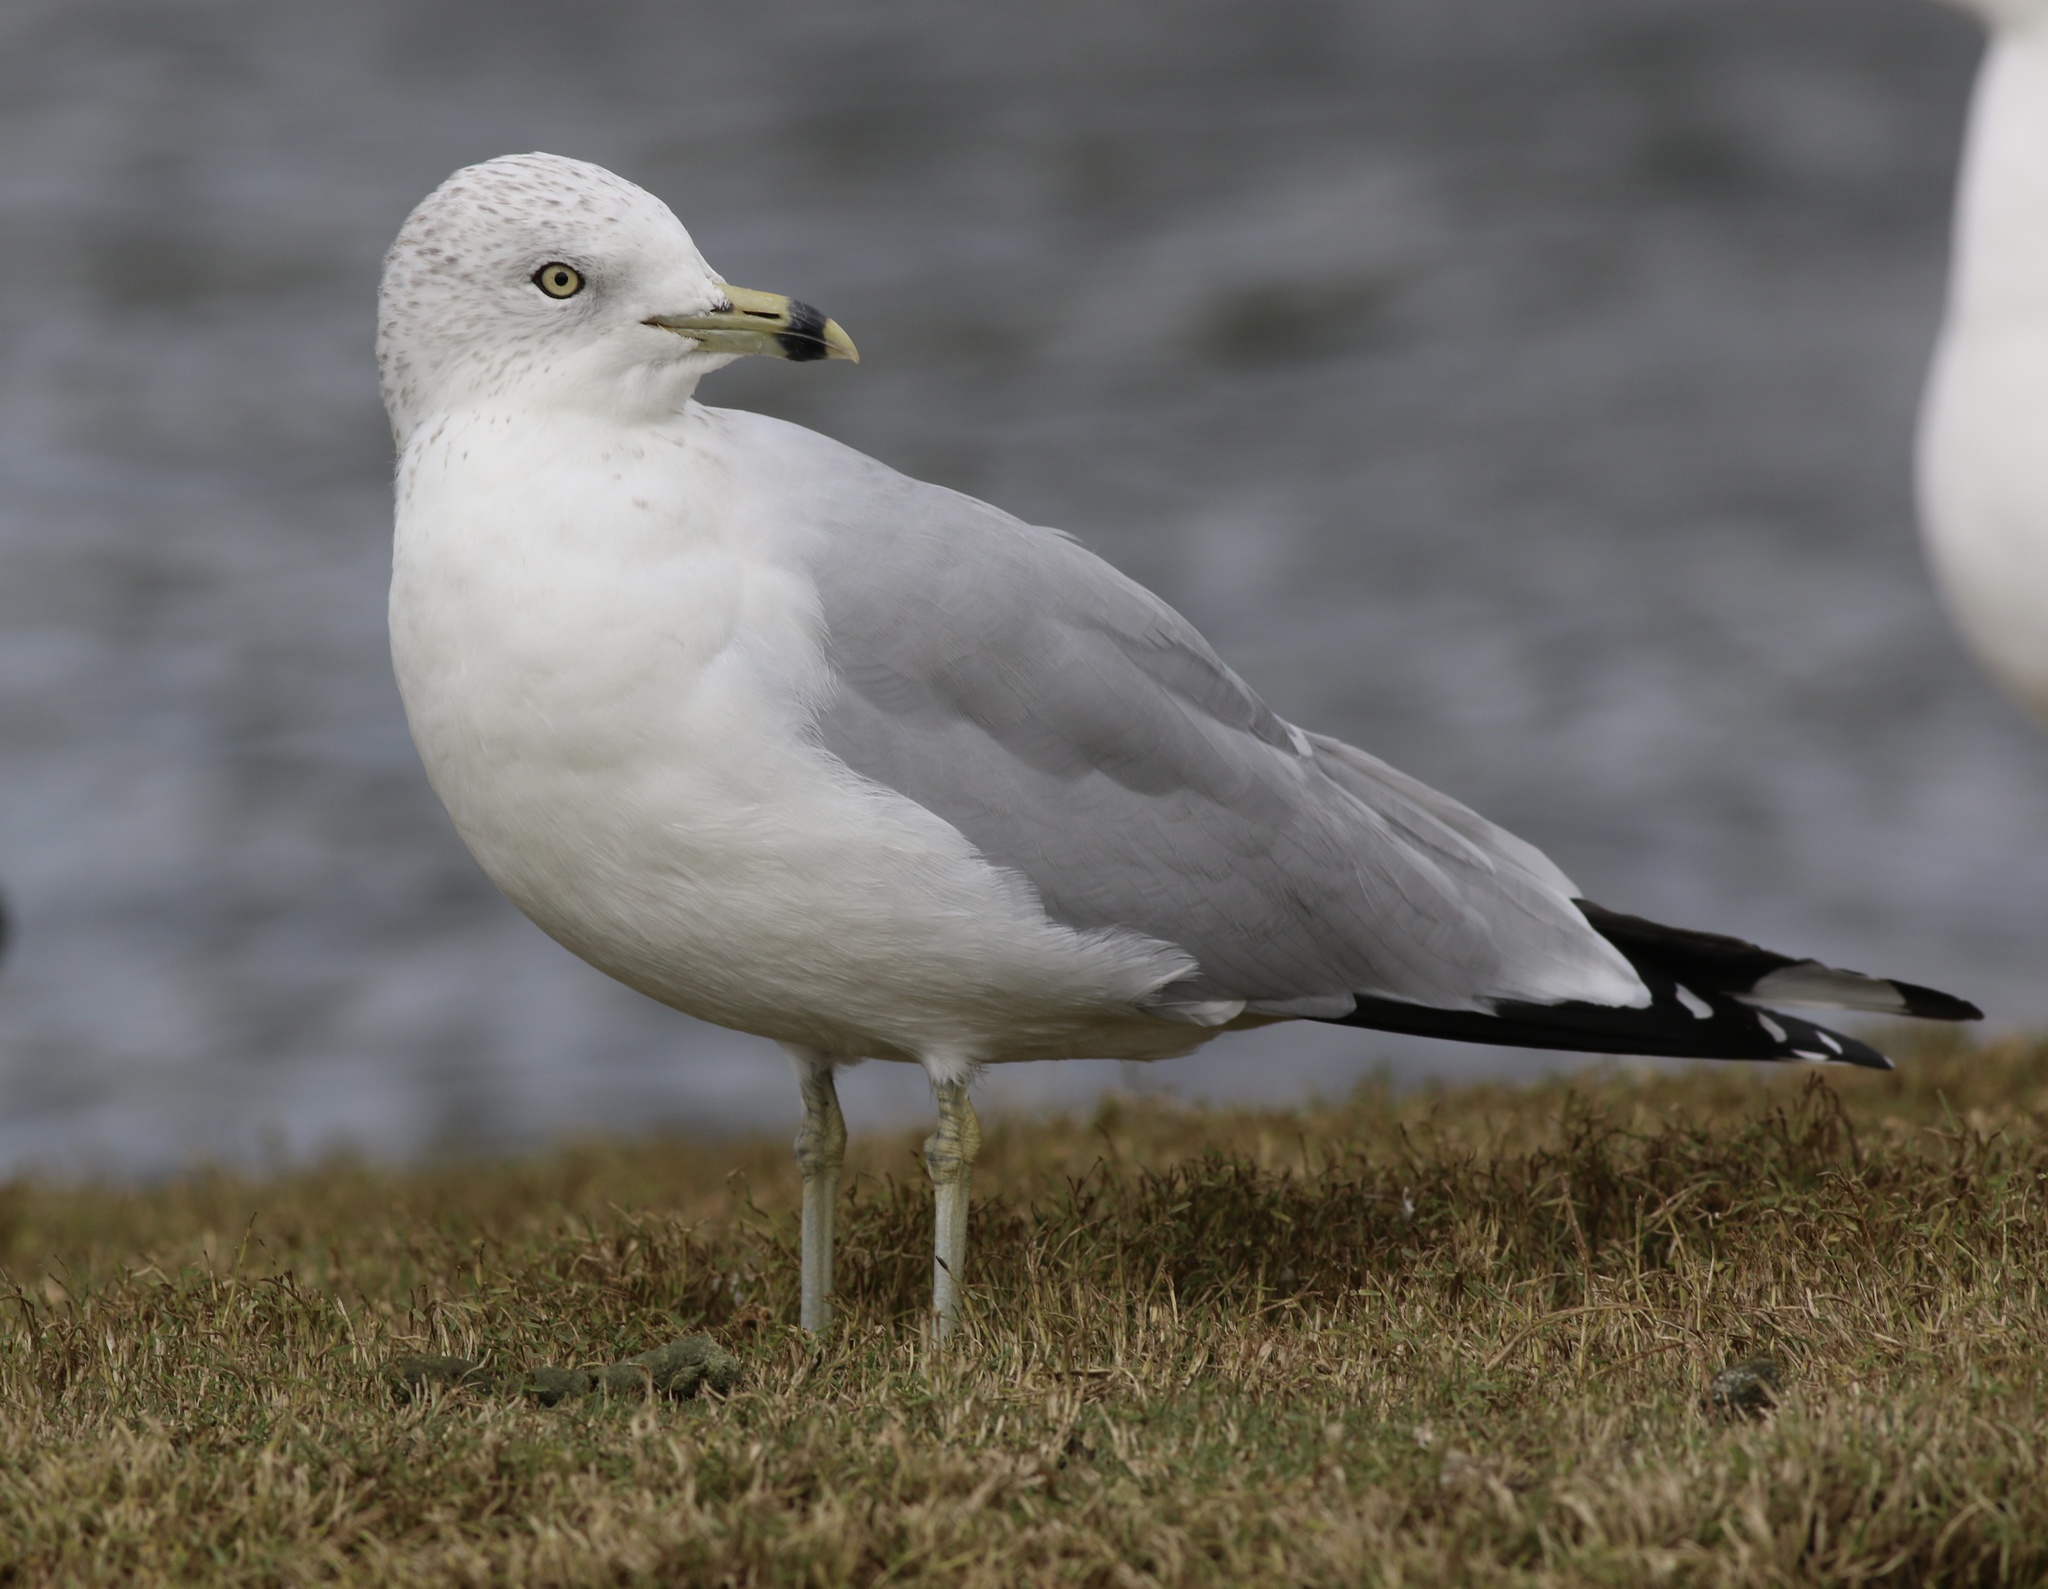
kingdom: Animalia
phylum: Chordata
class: Aves
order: Charadriiformes
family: Laridae
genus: Larus
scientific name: Larus delawarensis
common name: Ring-billed gull
